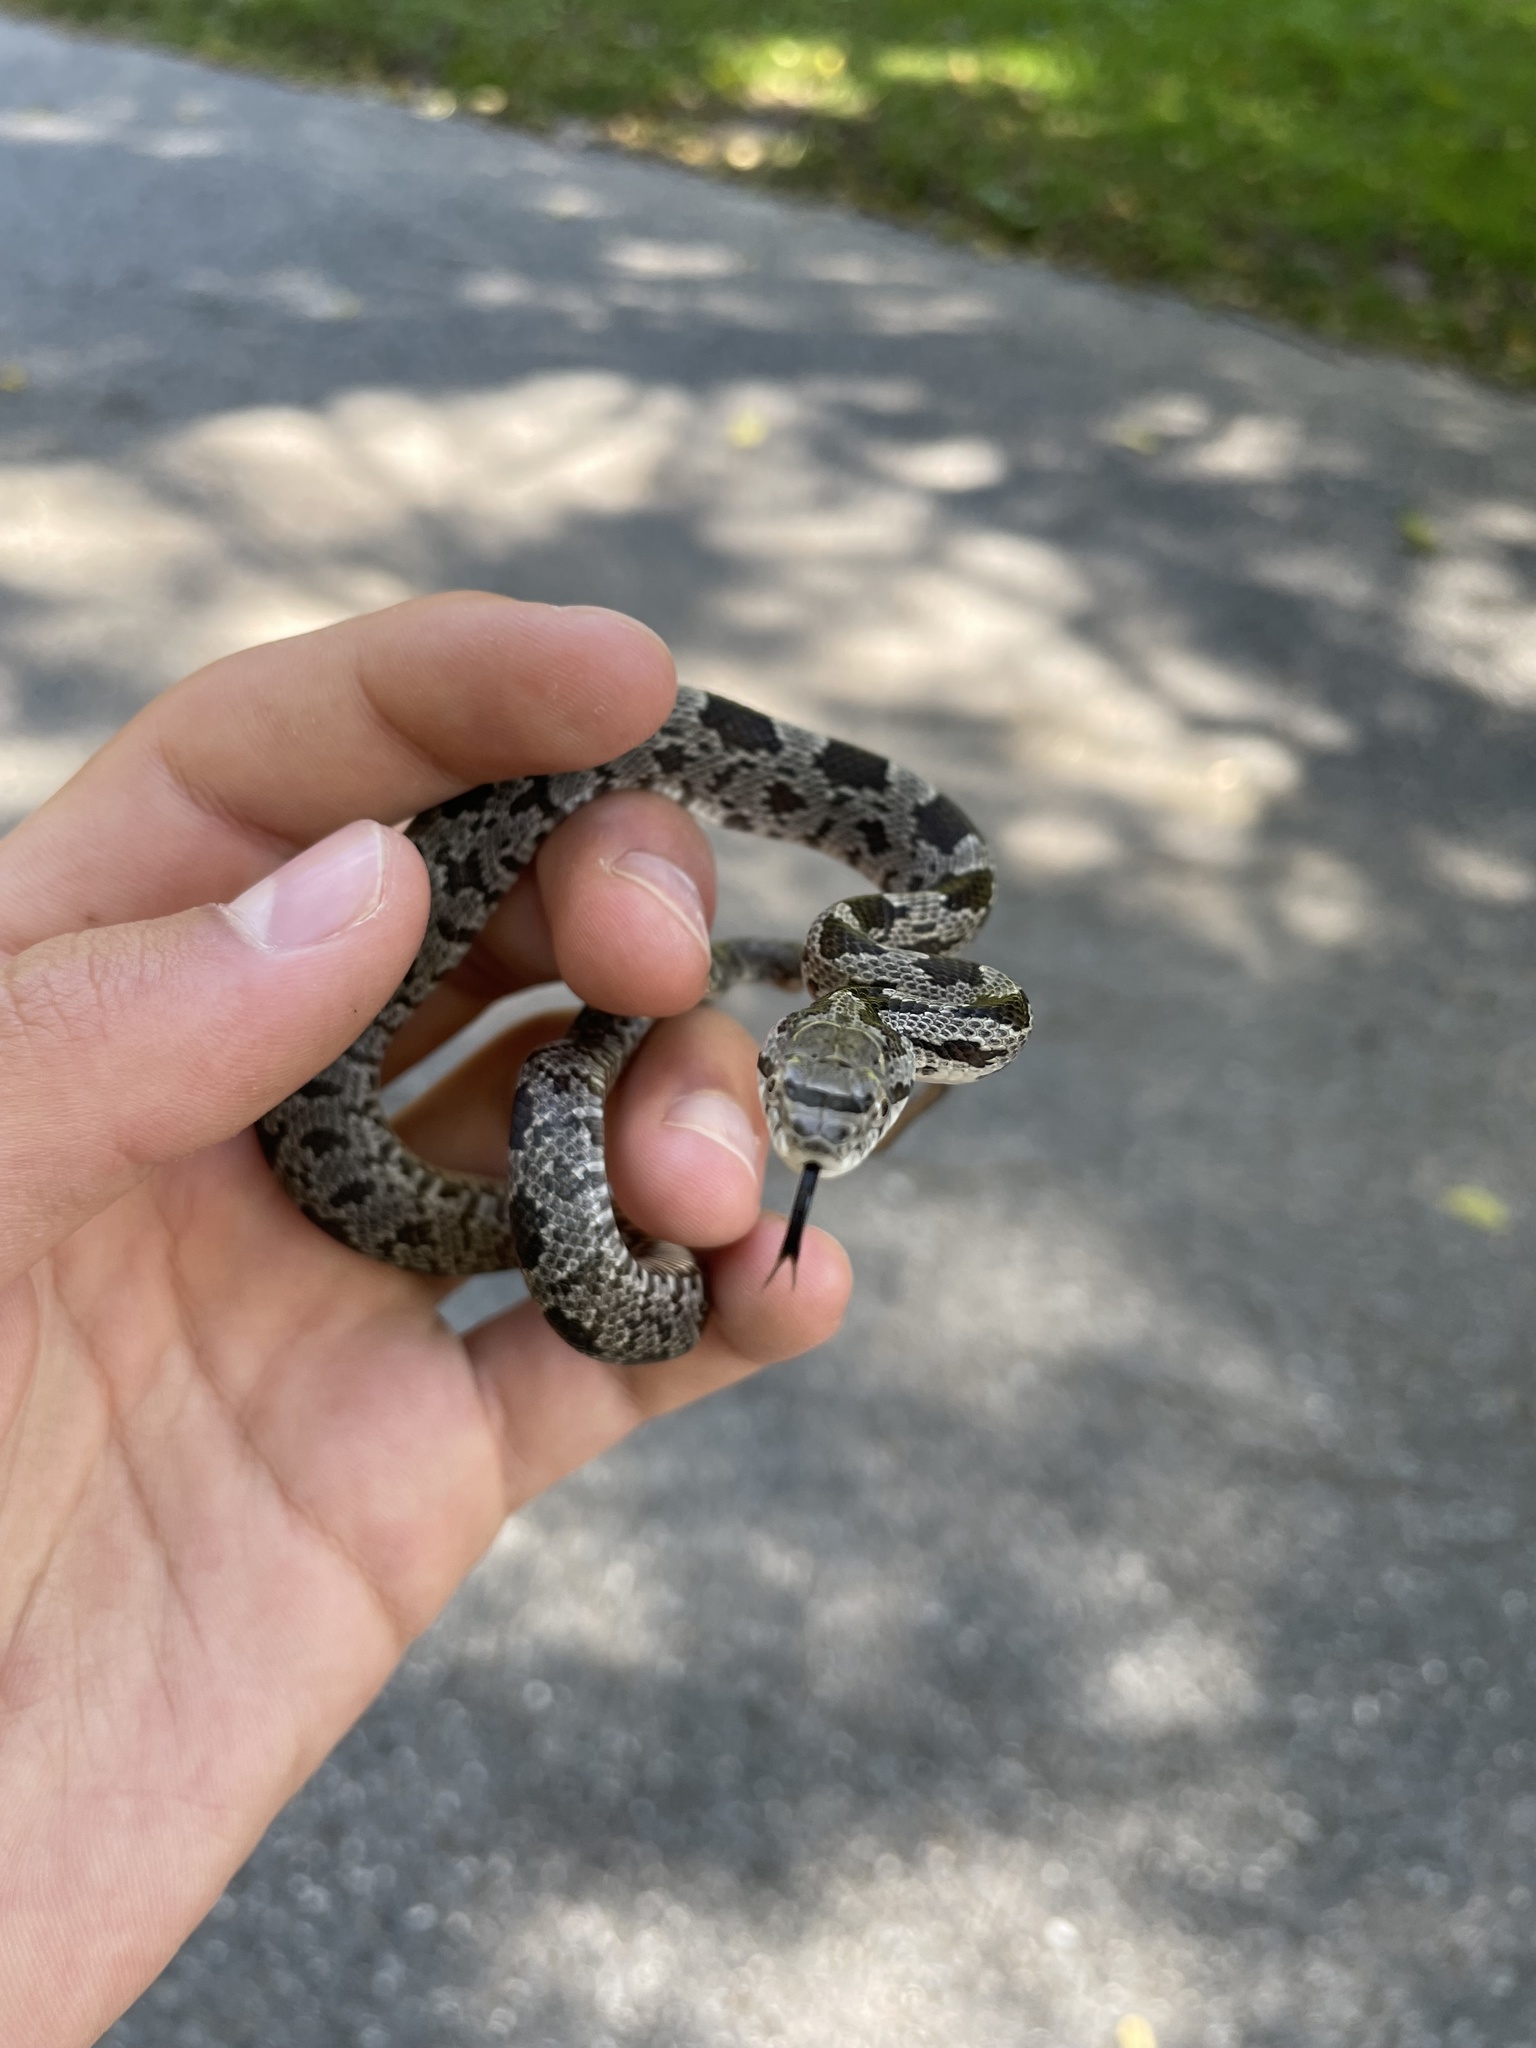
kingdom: Animalia
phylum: Chordata
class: Squamata
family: Colubridae
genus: Pantherophis
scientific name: Pantherophis alleghaniensis
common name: Eastern rat snake
